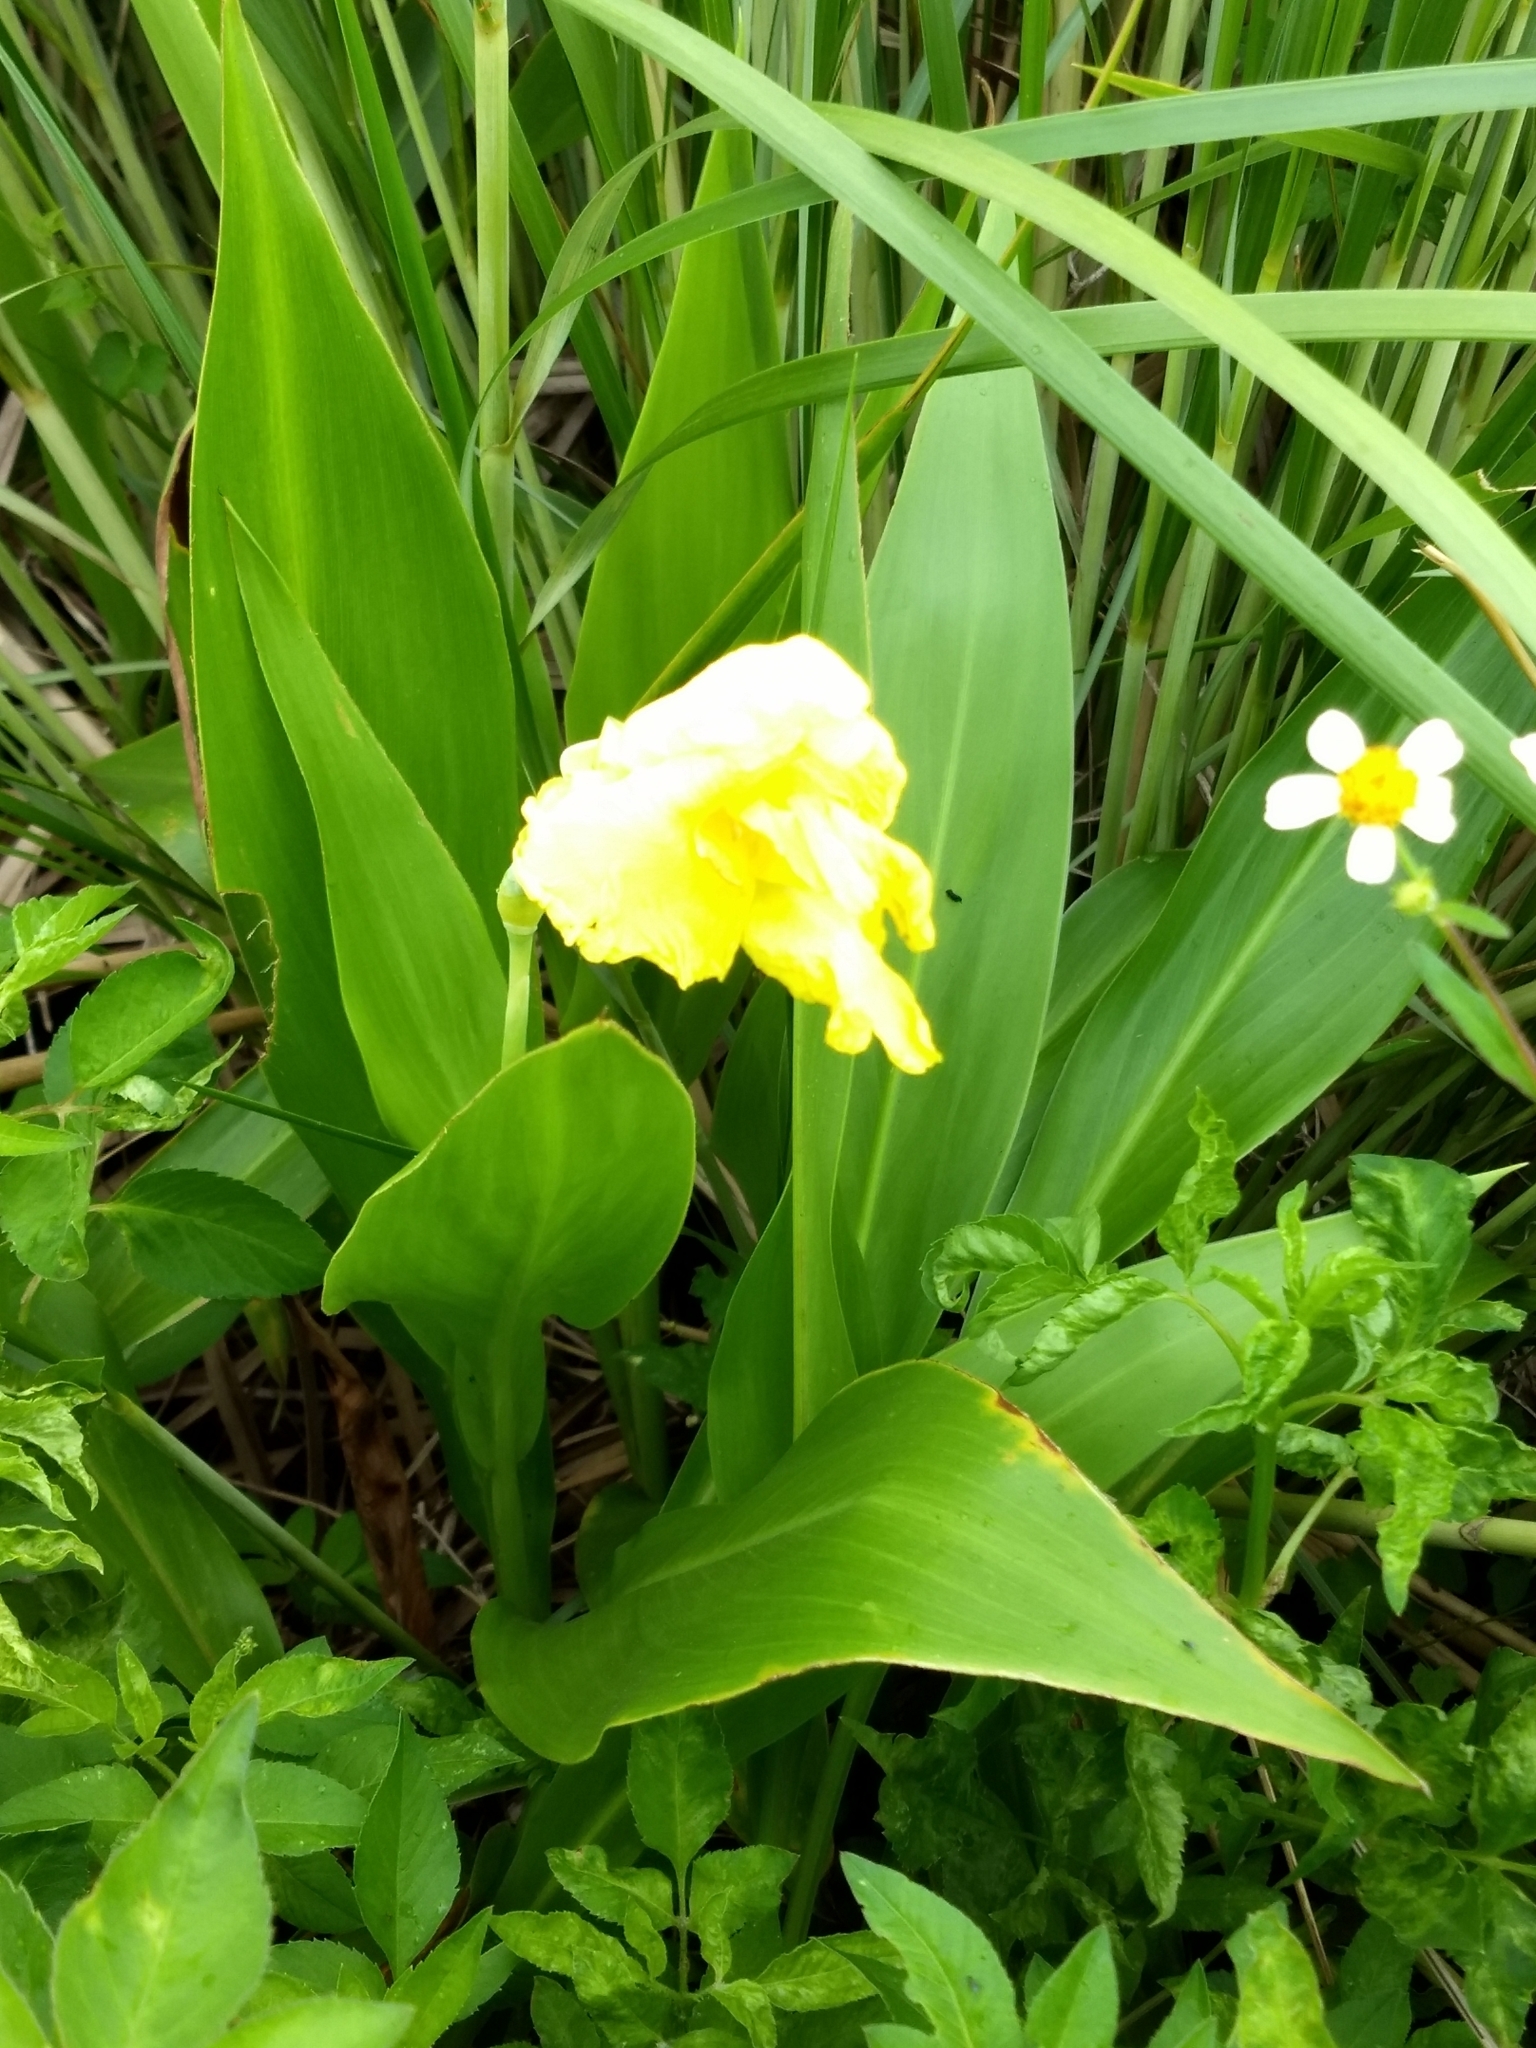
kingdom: Plantae
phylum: Tracheophyta
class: Liliopsida
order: Zingiberales
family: Cannaceae
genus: Canna
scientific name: Canna flaccida
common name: Bandana-of-the-everglades
